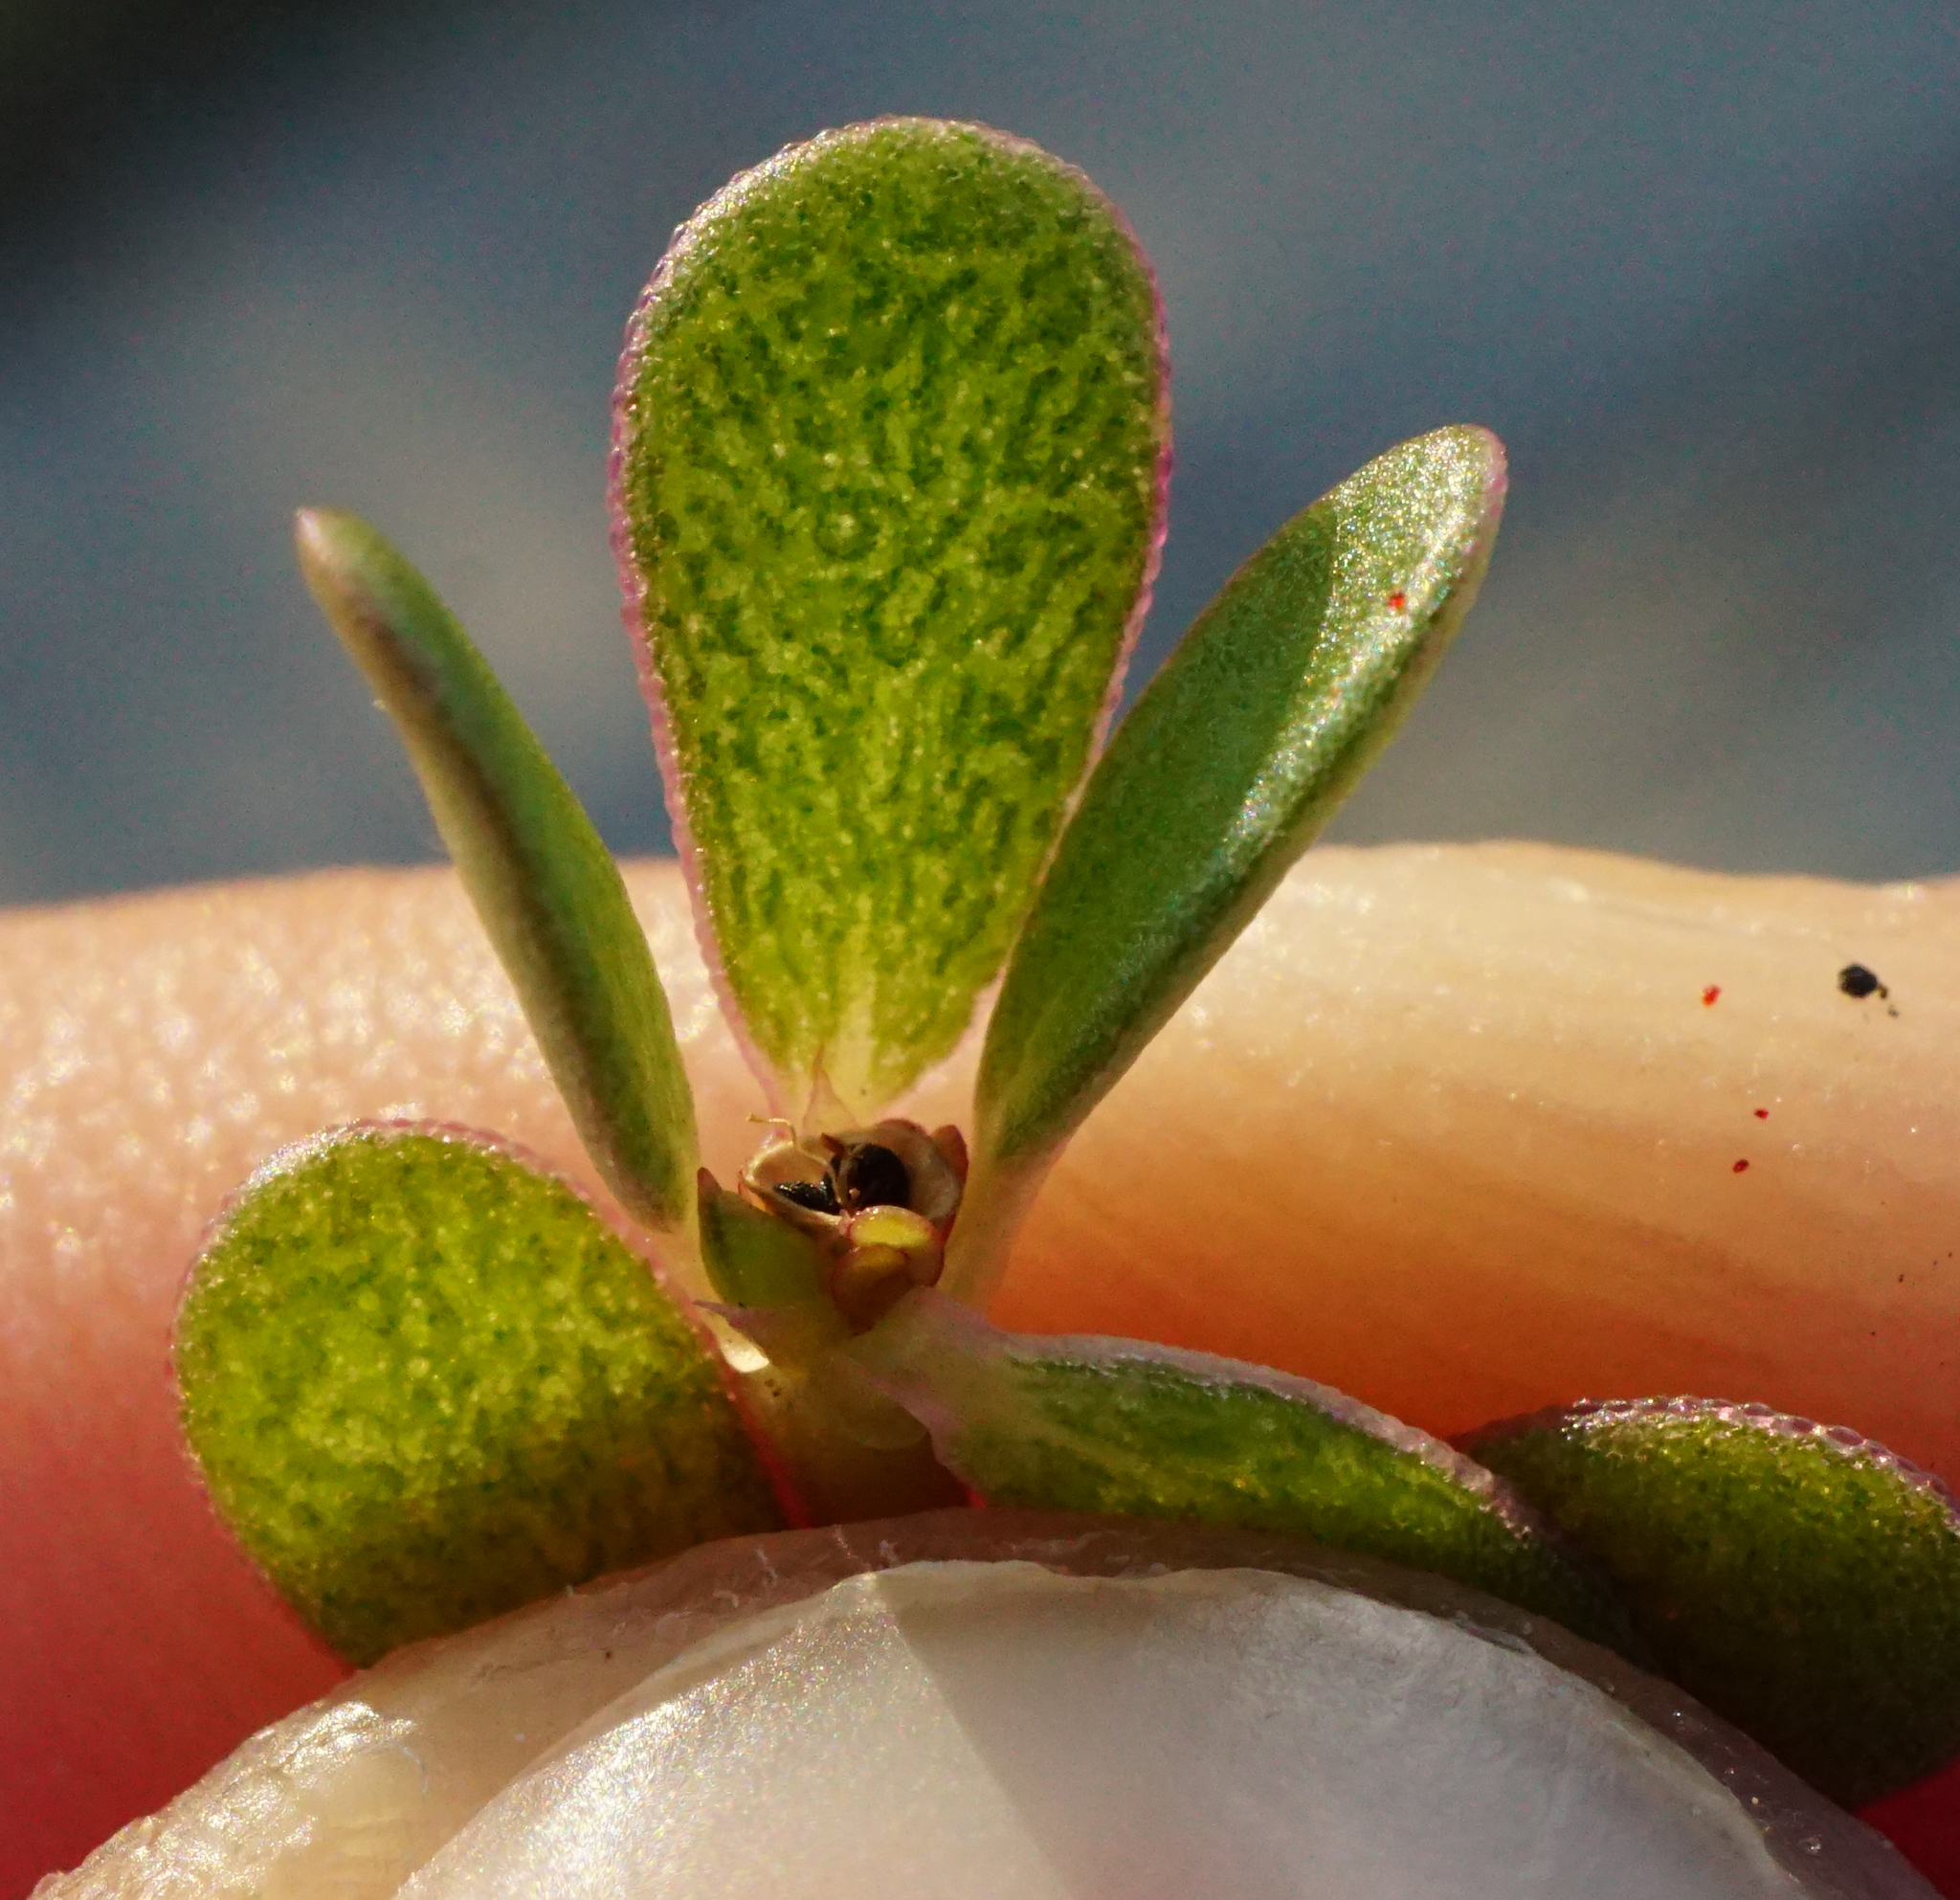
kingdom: Plantae
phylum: Tracheophyta
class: Magnoliopsida
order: Caryophyllales
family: Portulacaceae
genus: Portulaca
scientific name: Portulaca oleracea
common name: Common purslane
